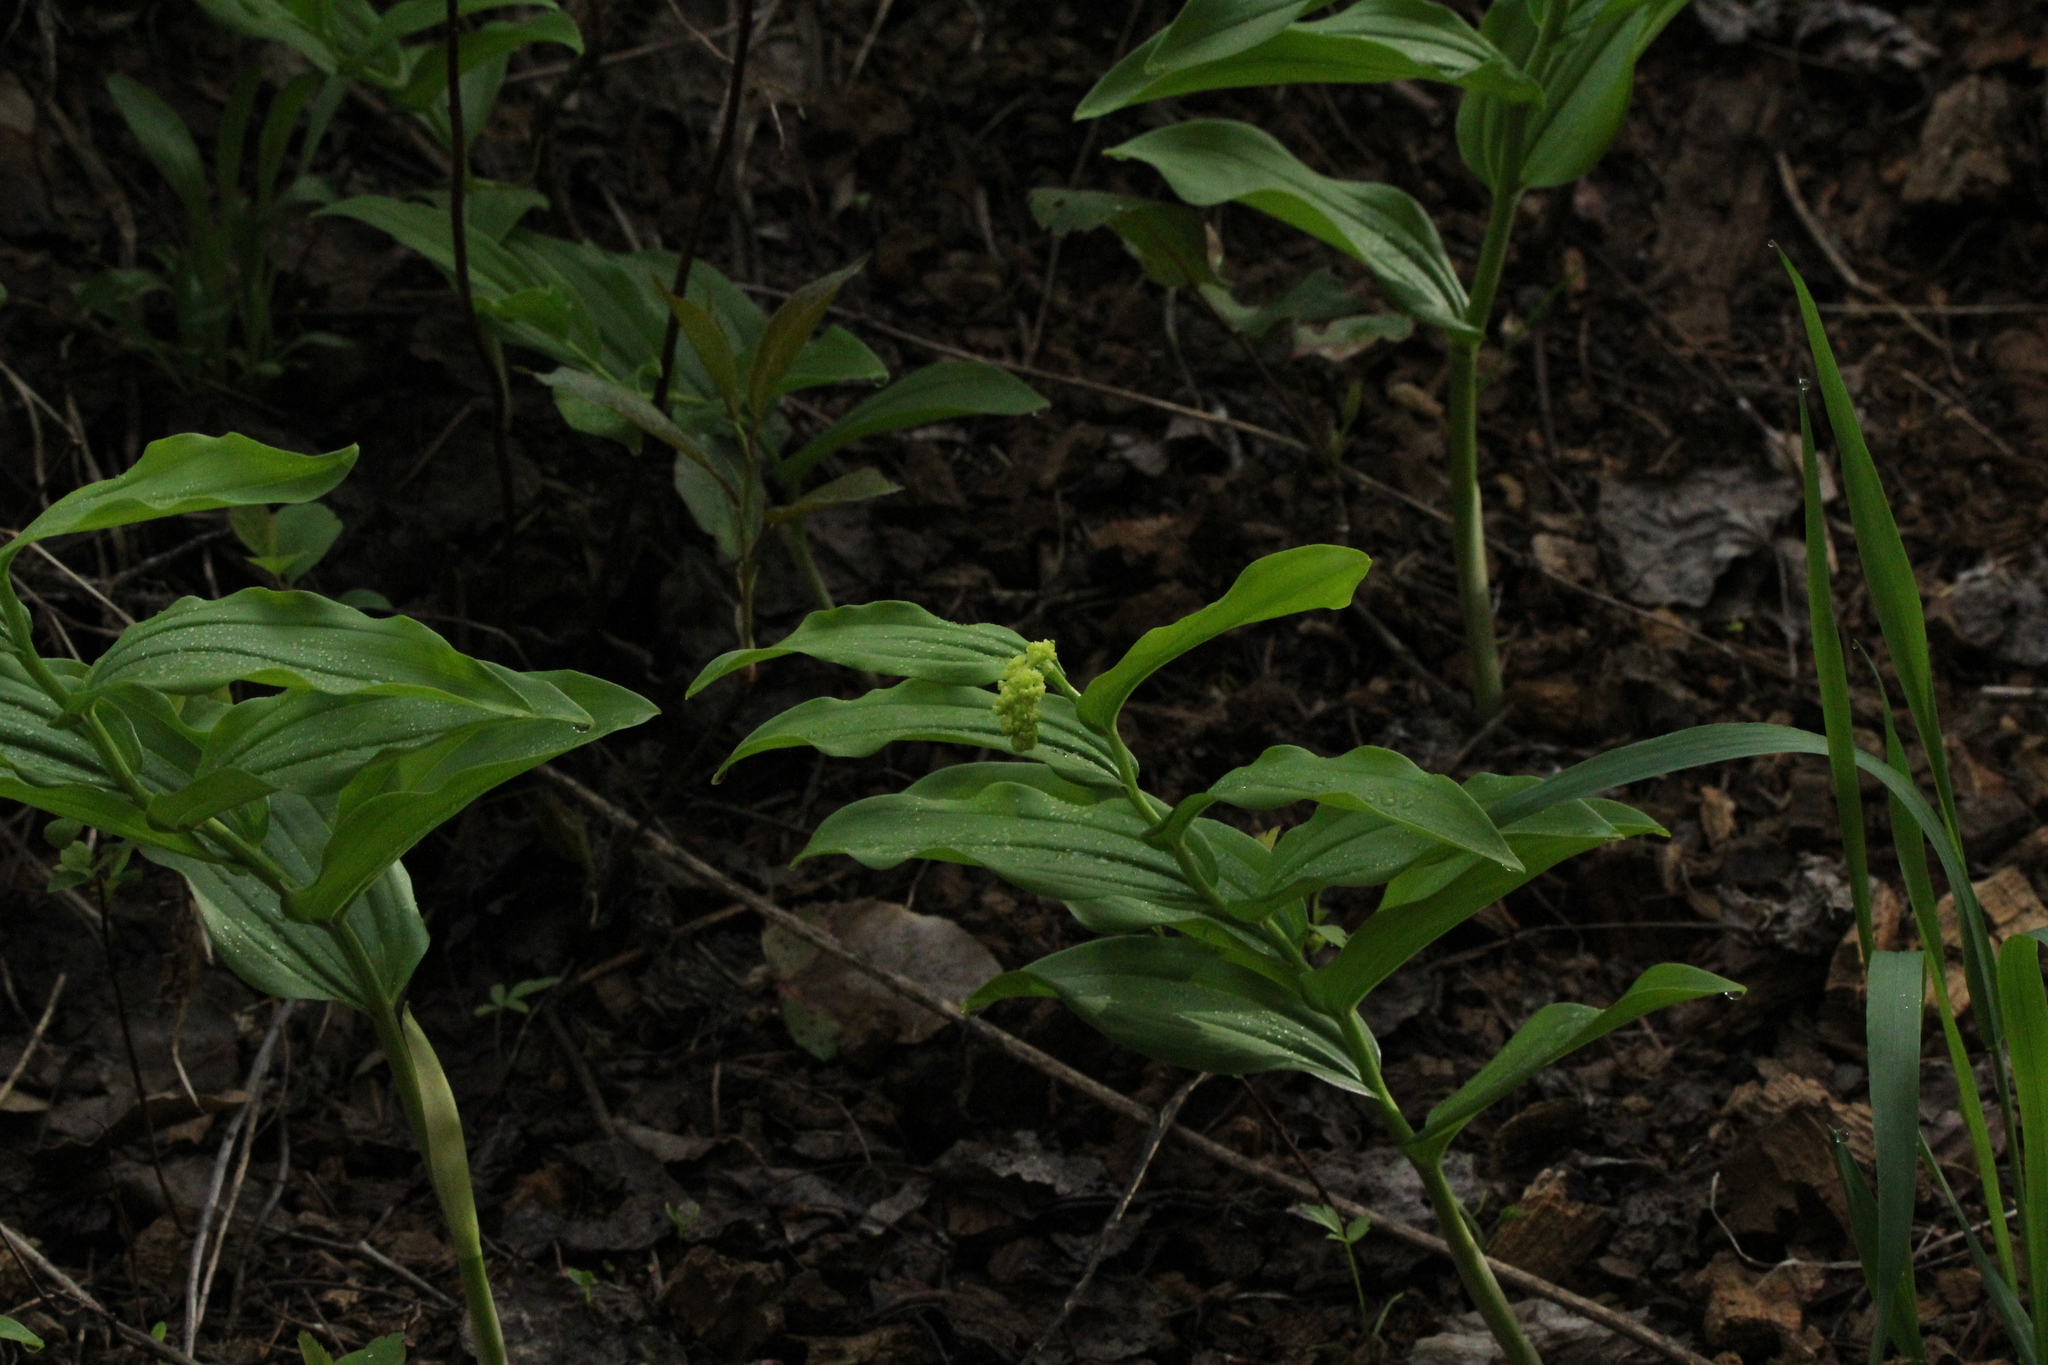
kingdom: Plantae
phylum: Tracheophyta
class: Liliopsida
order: Asparagales
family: Asparagaceae
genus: Maianthemum
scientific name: Maianthemum racemosum
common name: False spikenard
